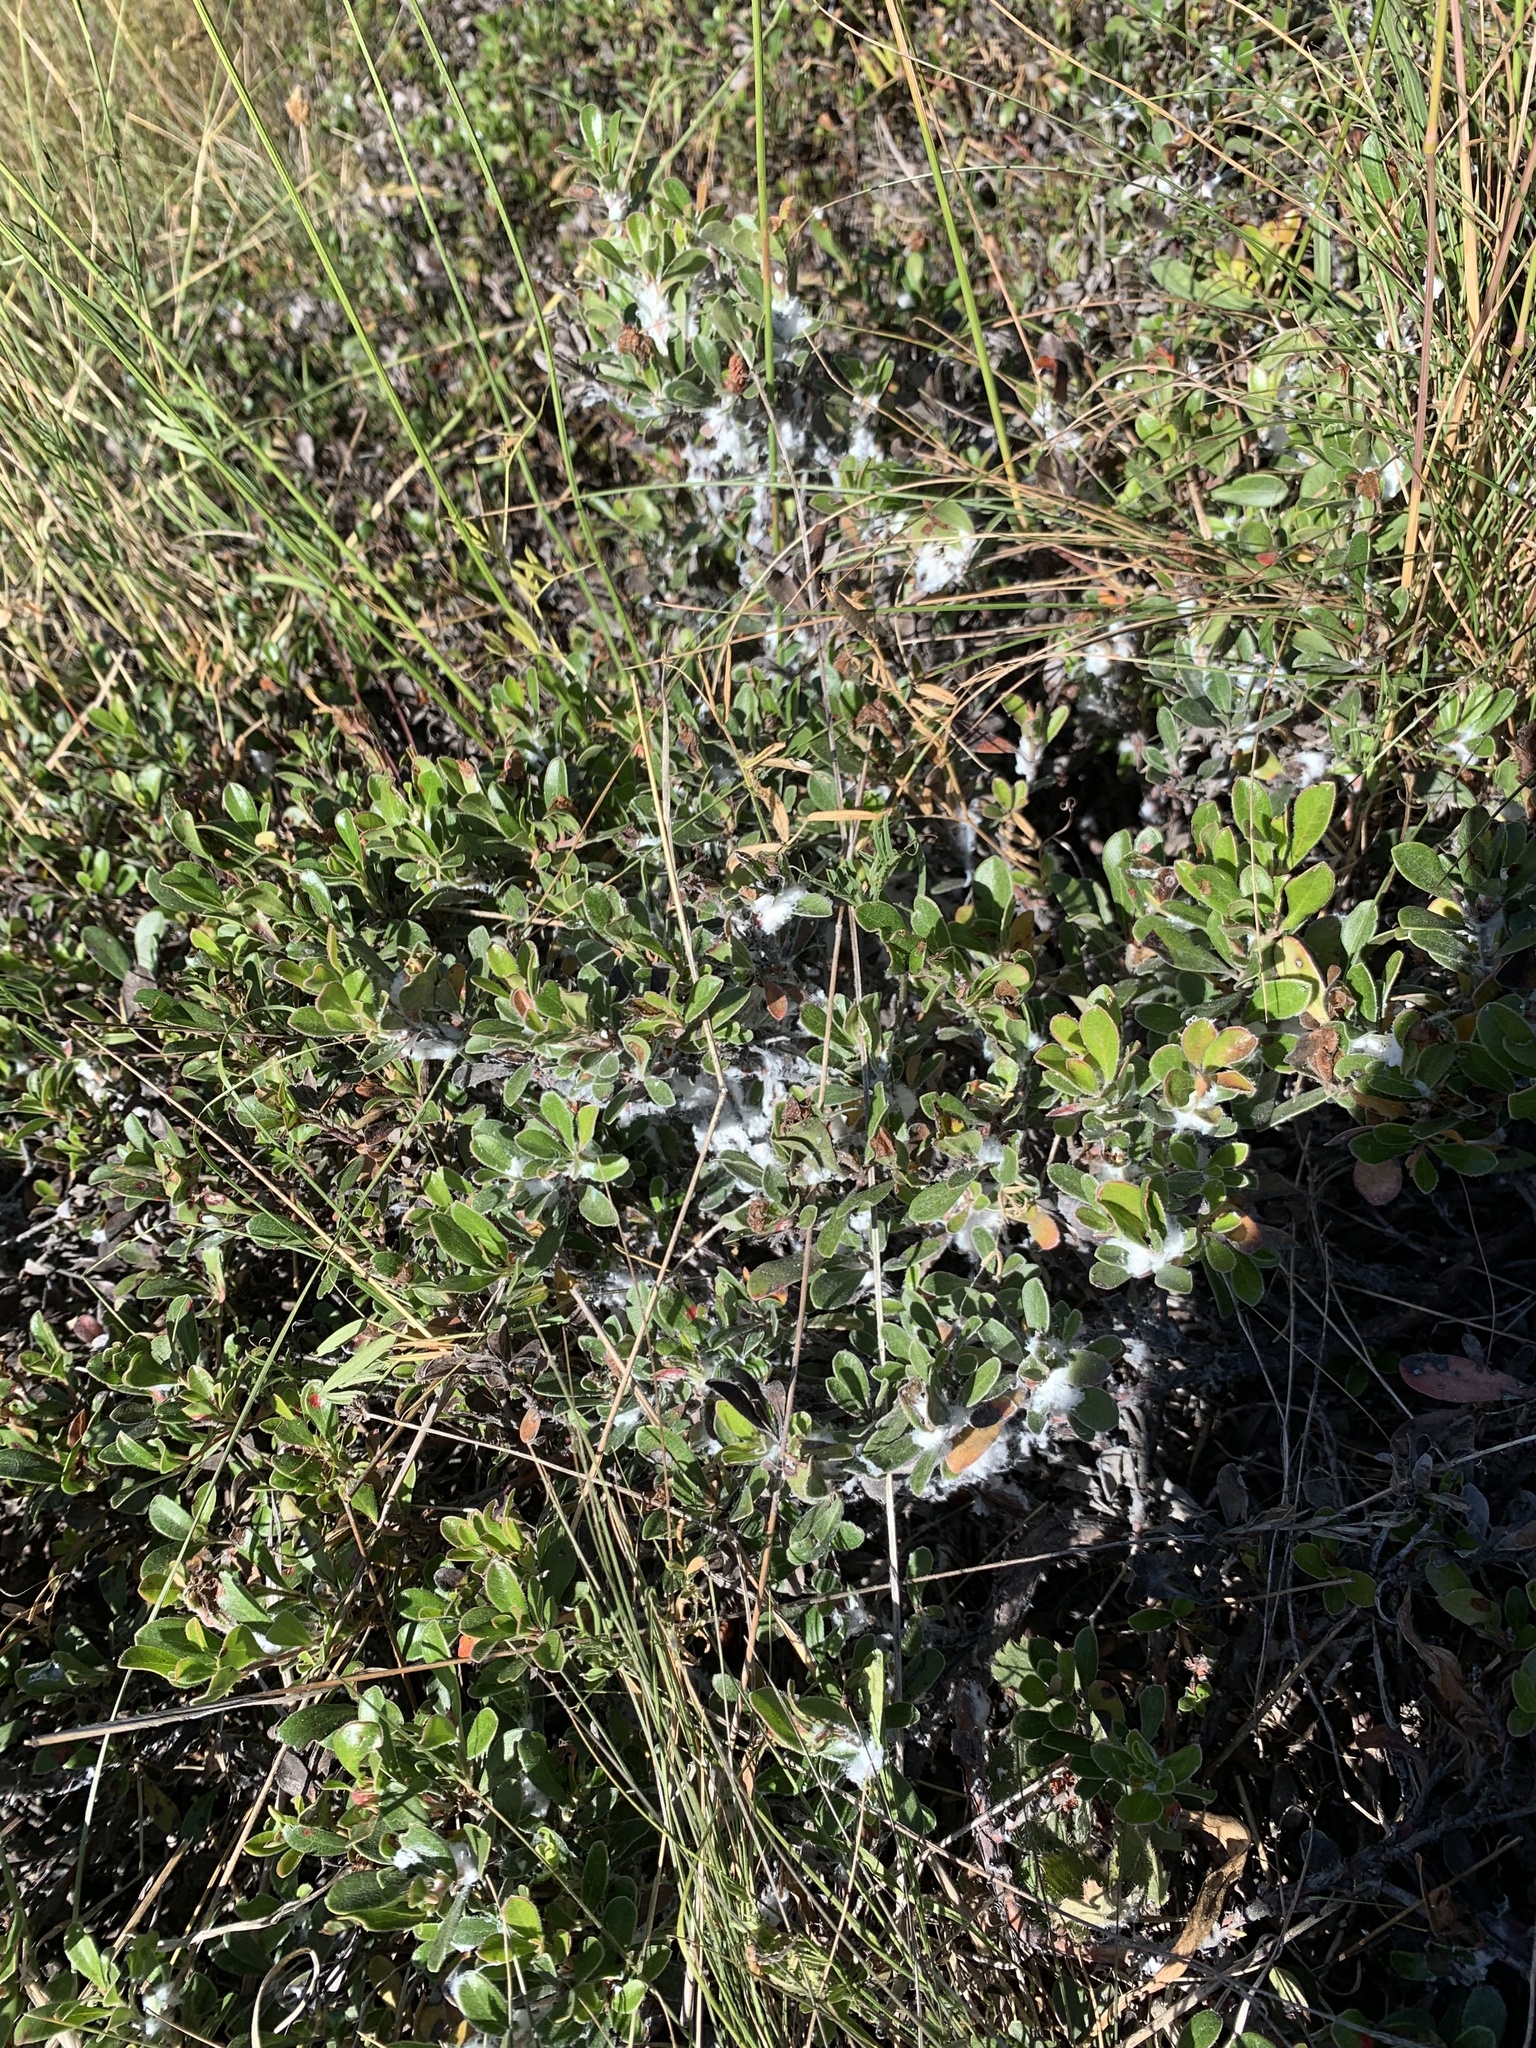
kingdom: Plantae
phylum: Tracheophyta
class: Magnoliopsida
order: Ericales
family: Ericaceae
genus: Arctostaphylos
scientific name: Arctostaphylos uva-ursi
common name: Bearberry
